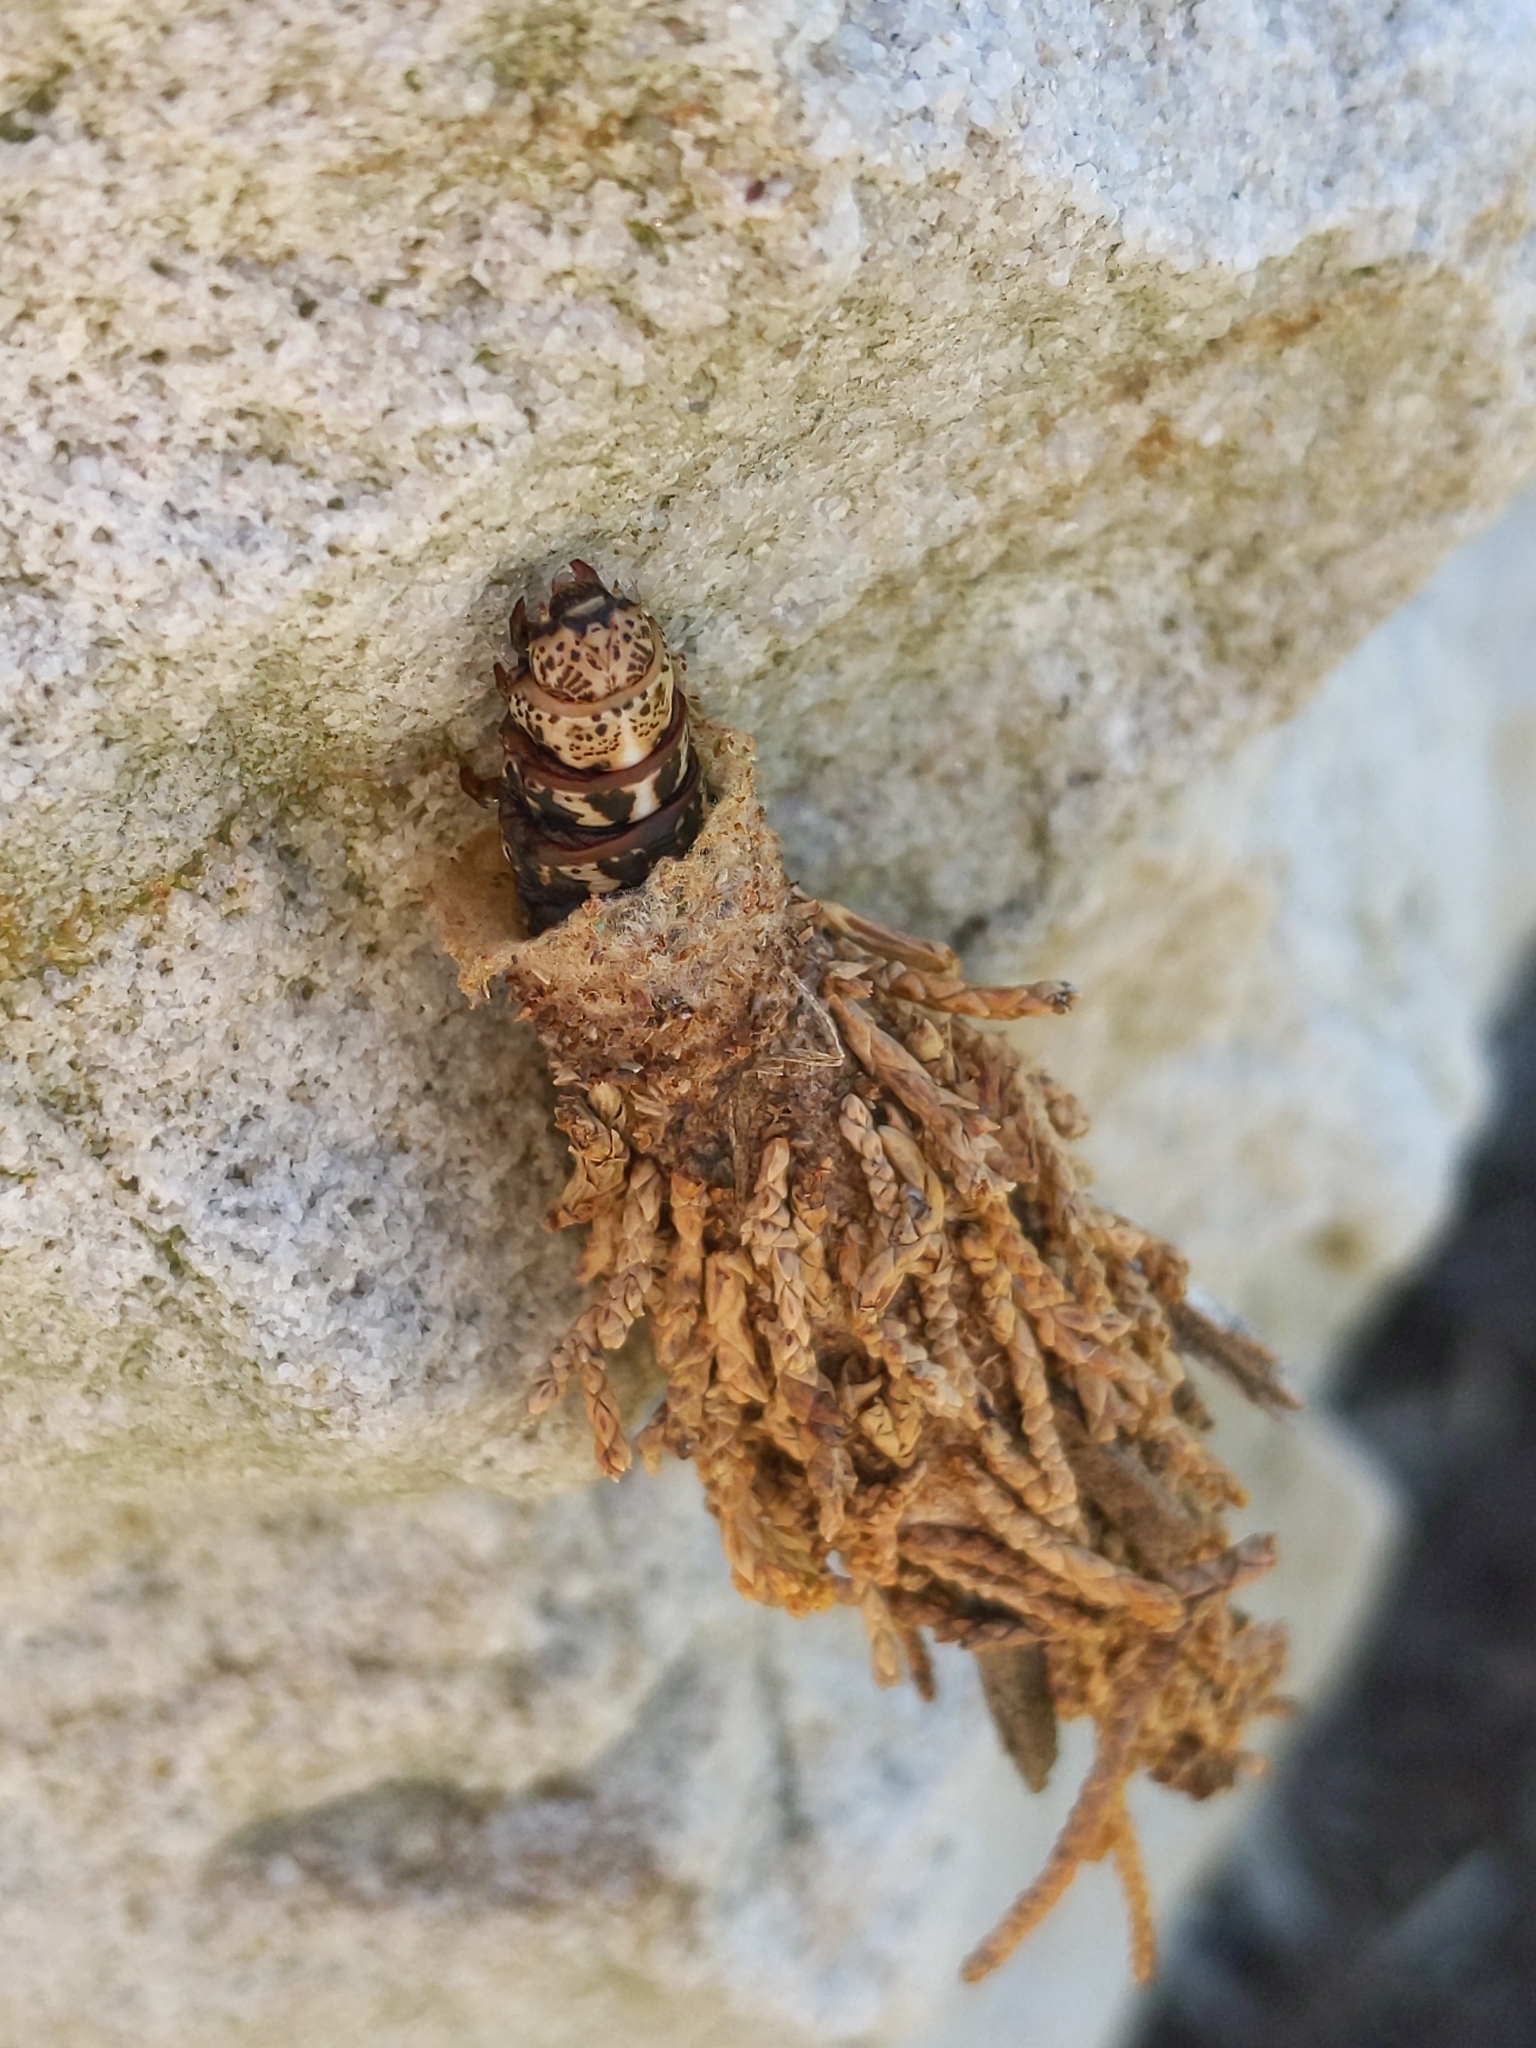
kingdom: Animalia
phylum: Arthropoda
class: Insecta
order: Lepidoptera
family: Psychidae
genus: Thyridopteryx
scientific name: Thyridopteryx ephemeraeformis
